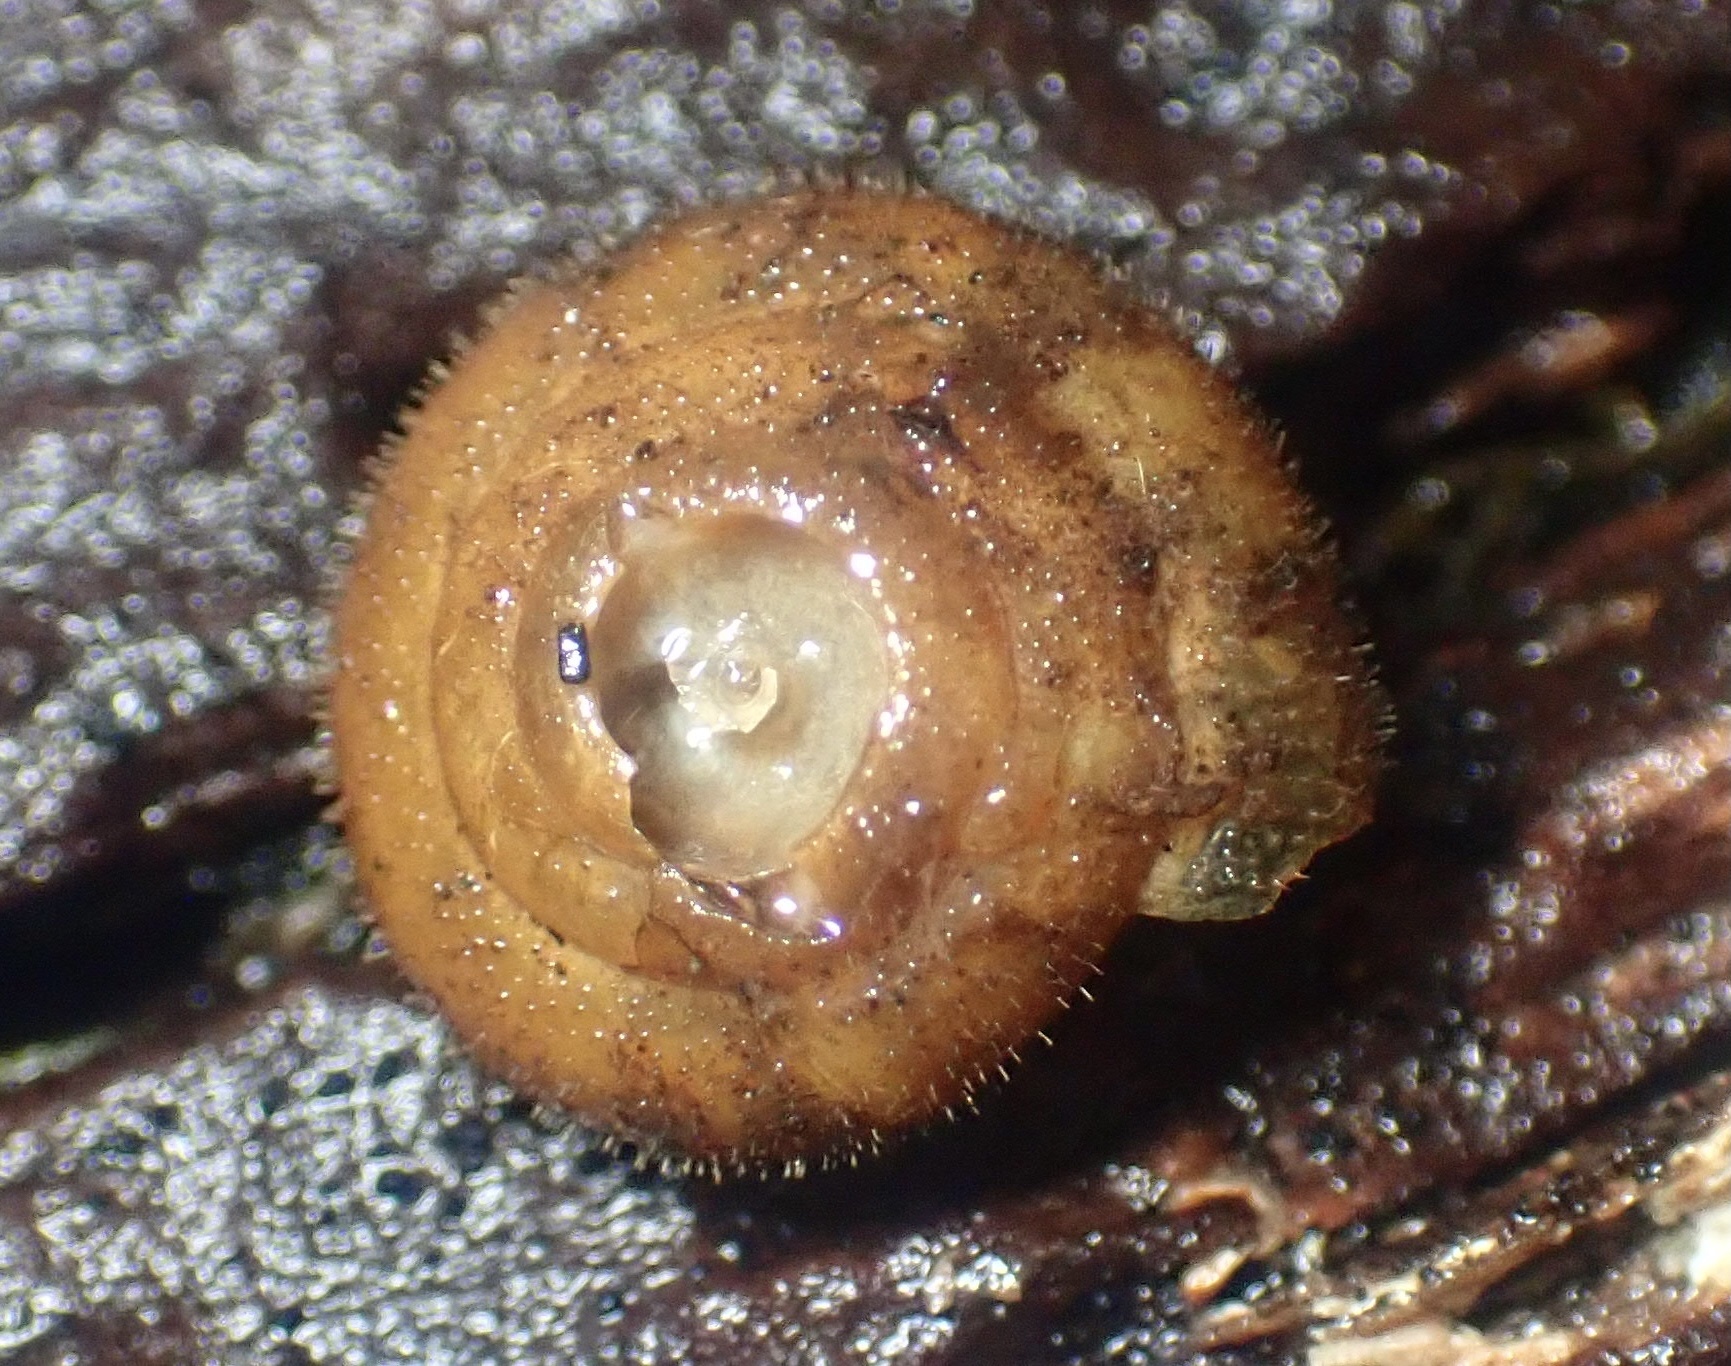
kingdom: Animalia
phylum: Mollusca
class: Gastropoda
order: Stylommatophora
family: Polygyridae
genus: Vespericola
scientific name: Vespericola columbianus
